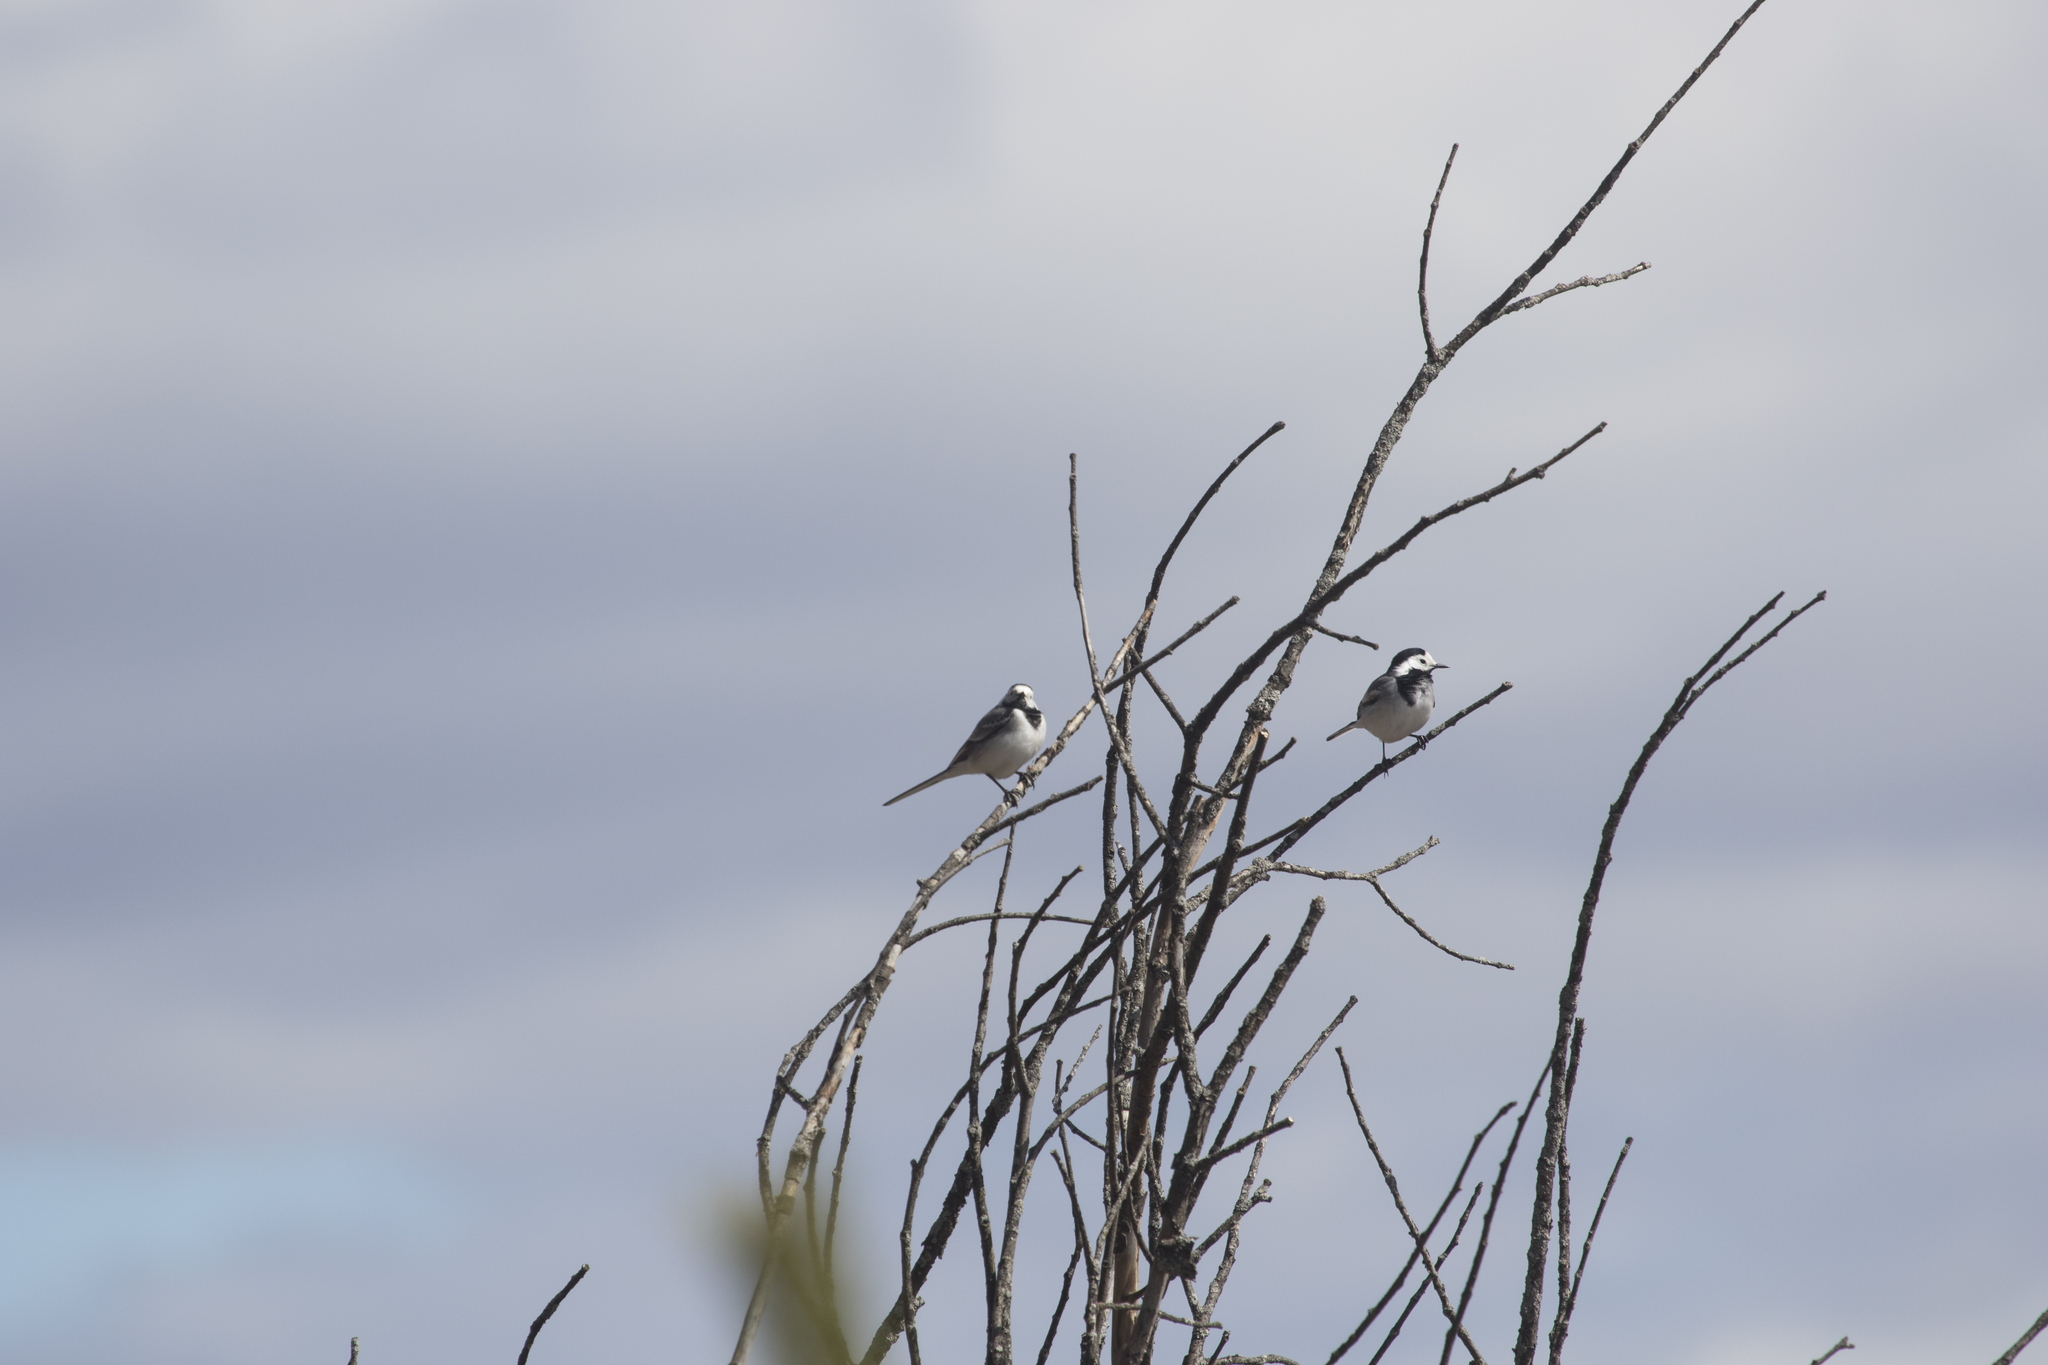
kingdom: Animalia
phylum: Chordata
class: Aves
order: Passeriformes
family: Motacillidae
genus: Motacilla
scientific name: Motacilla alba
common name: White wagtail
